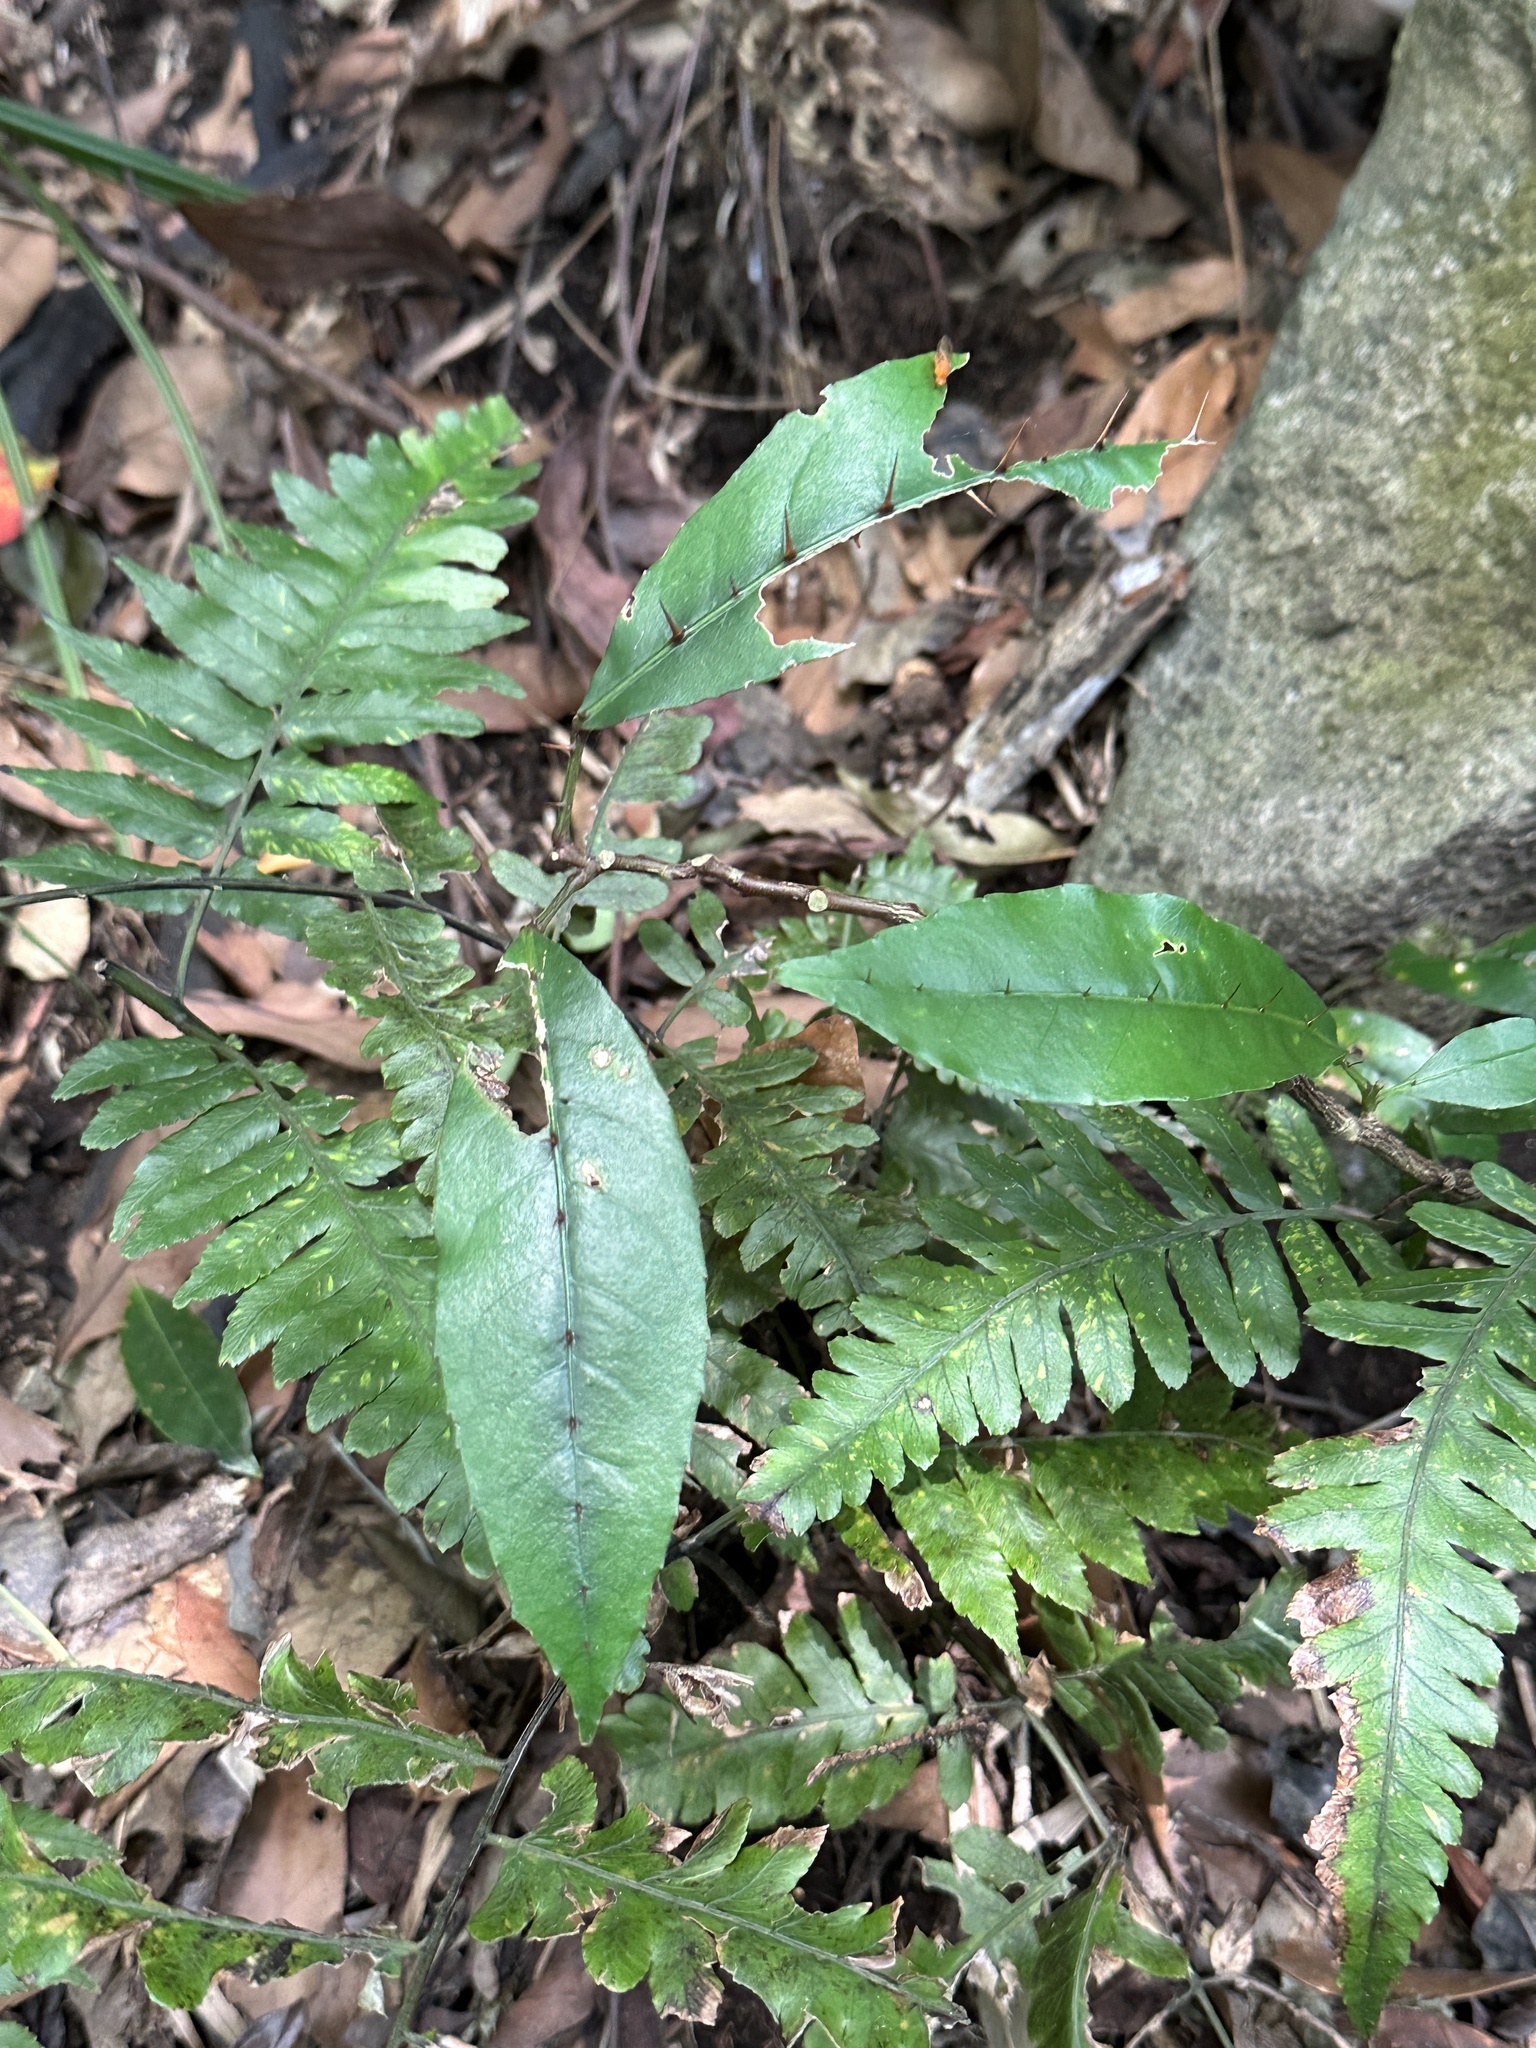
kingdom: Plantae
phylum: Tracheophyta
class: Magnoliopsida
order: Sapindales
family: Rutaceae
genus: Zanthoxylum
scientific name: Zanthoxylum nitidum
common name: Shiny-leaf prickly-ash
